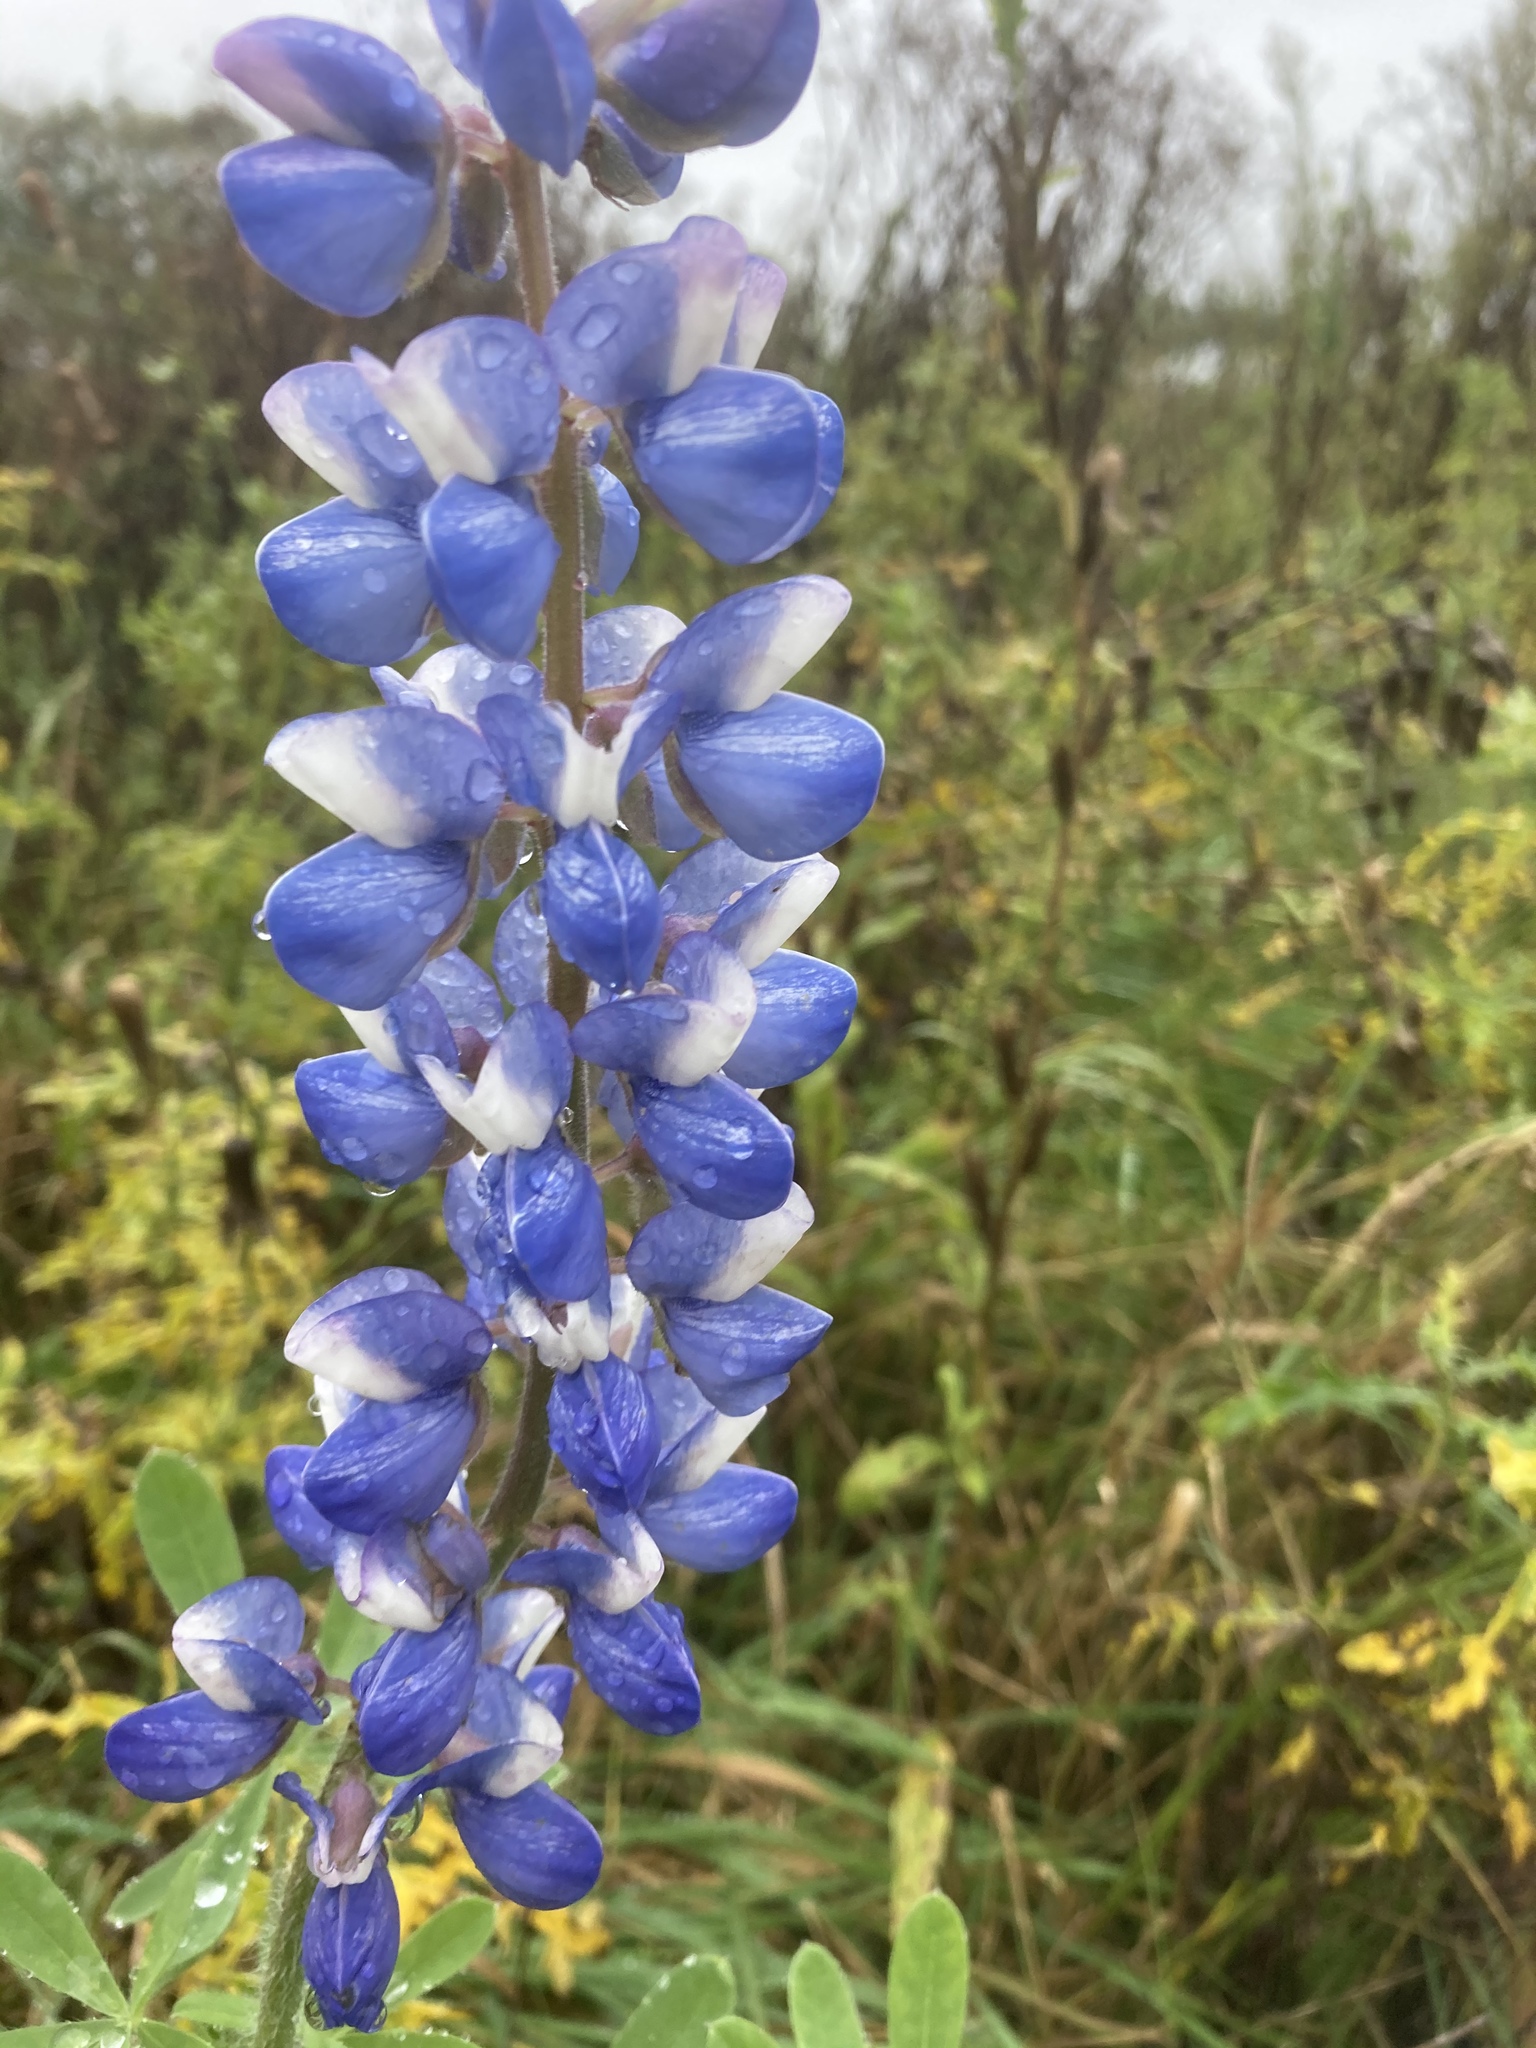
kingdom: Plantae
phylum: Tracheophyta
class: Magnoliopsida
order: Fabales
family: Fabaceae
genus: Lupinus
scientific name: Lupinus polyphyllus
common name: Garden lupin
